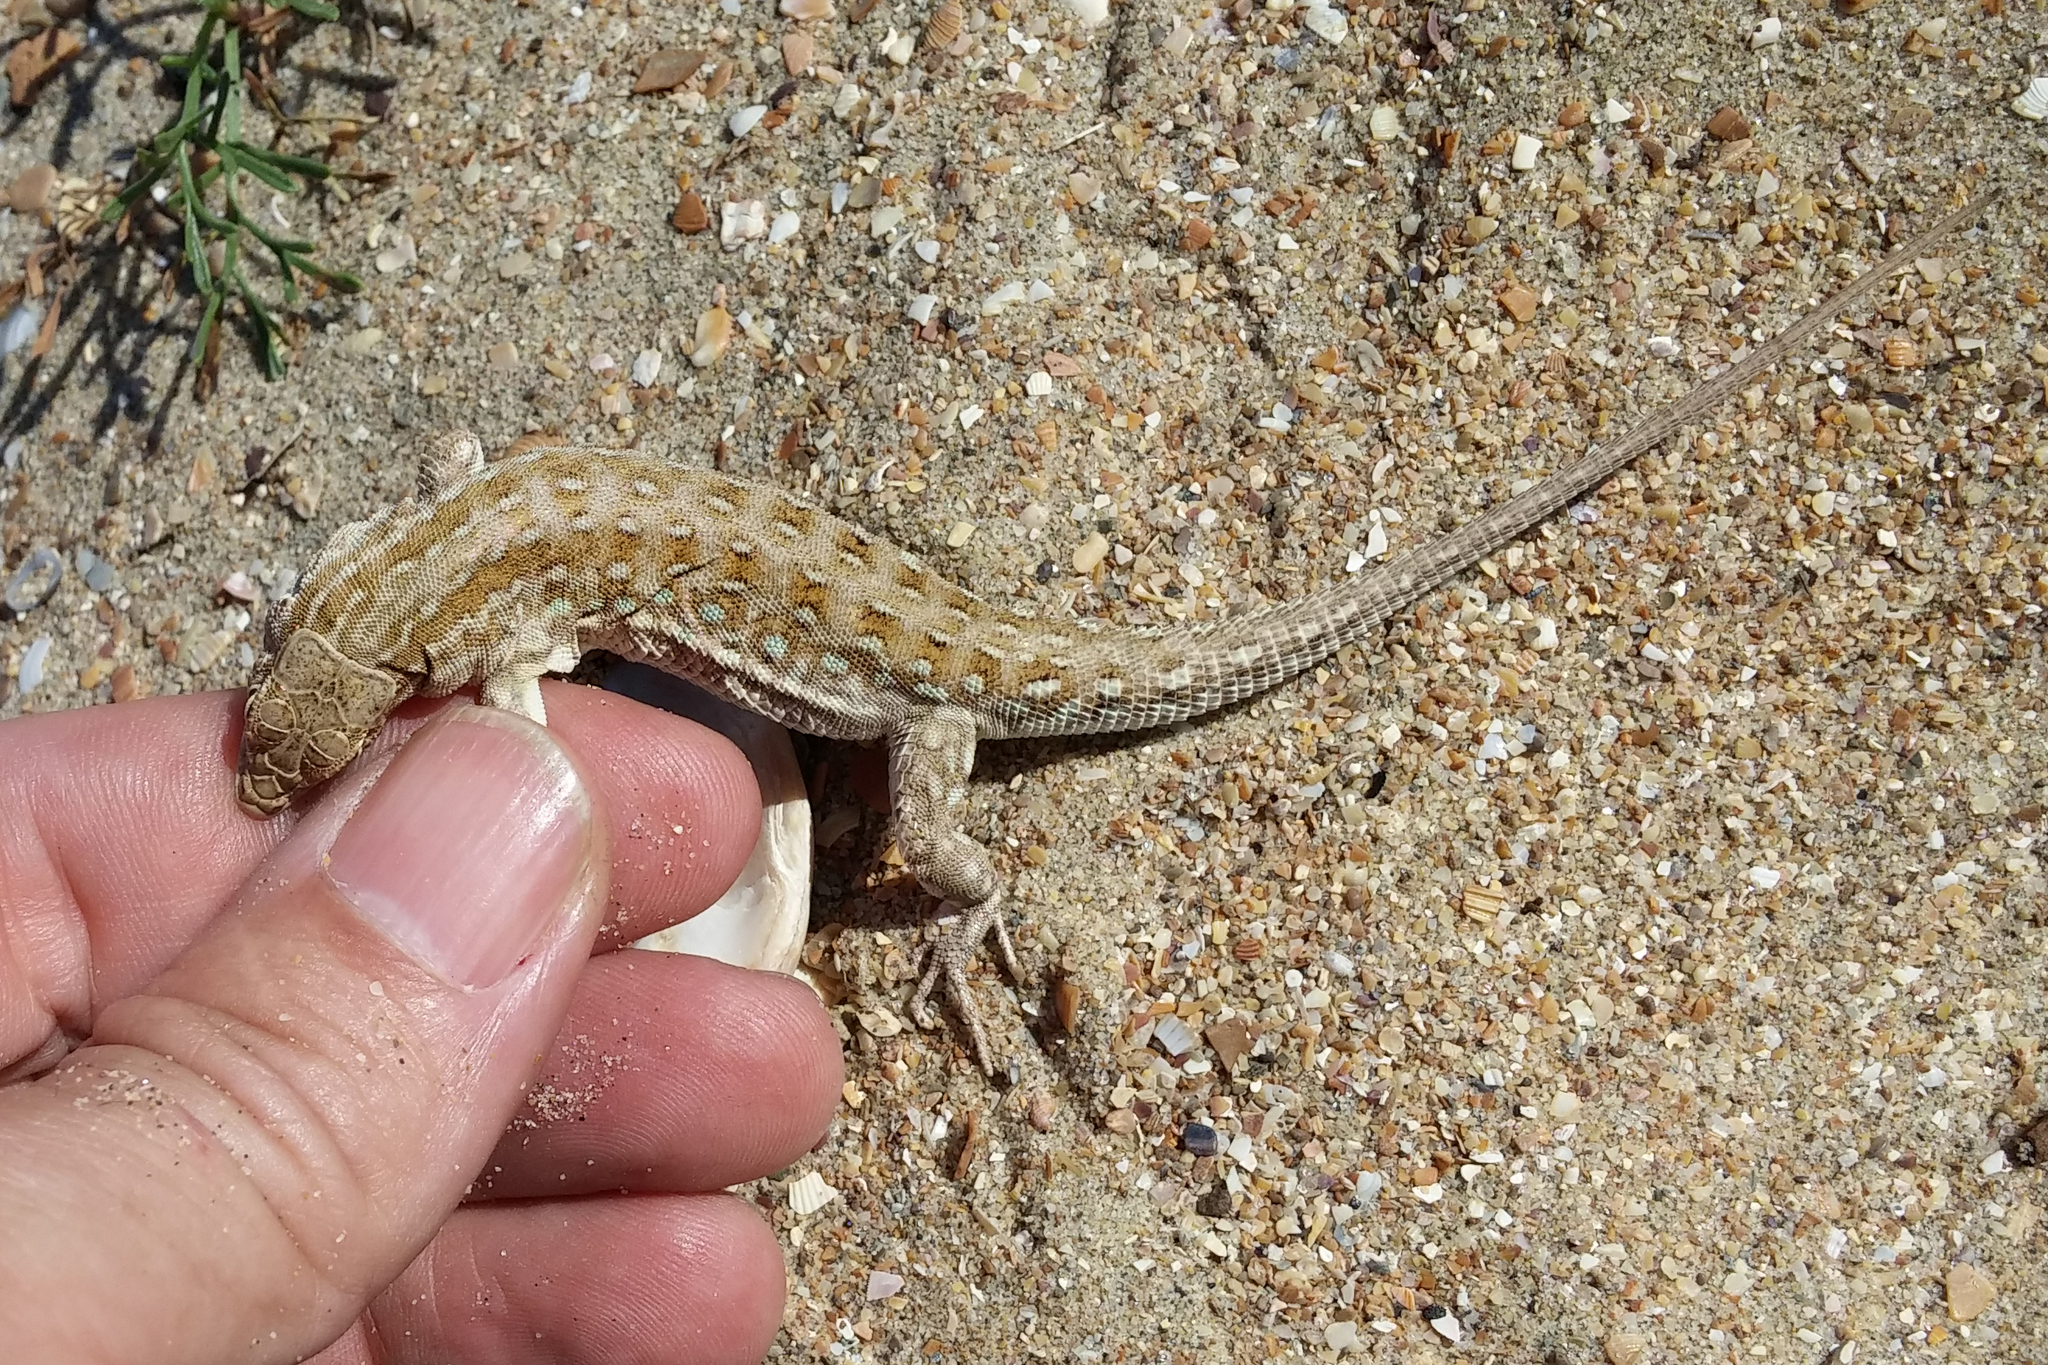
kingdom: Animalia
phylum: Chordata
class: Squamata
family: Lacertidae
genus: Eremias
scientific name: Eremias arguta
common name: Racerunner
